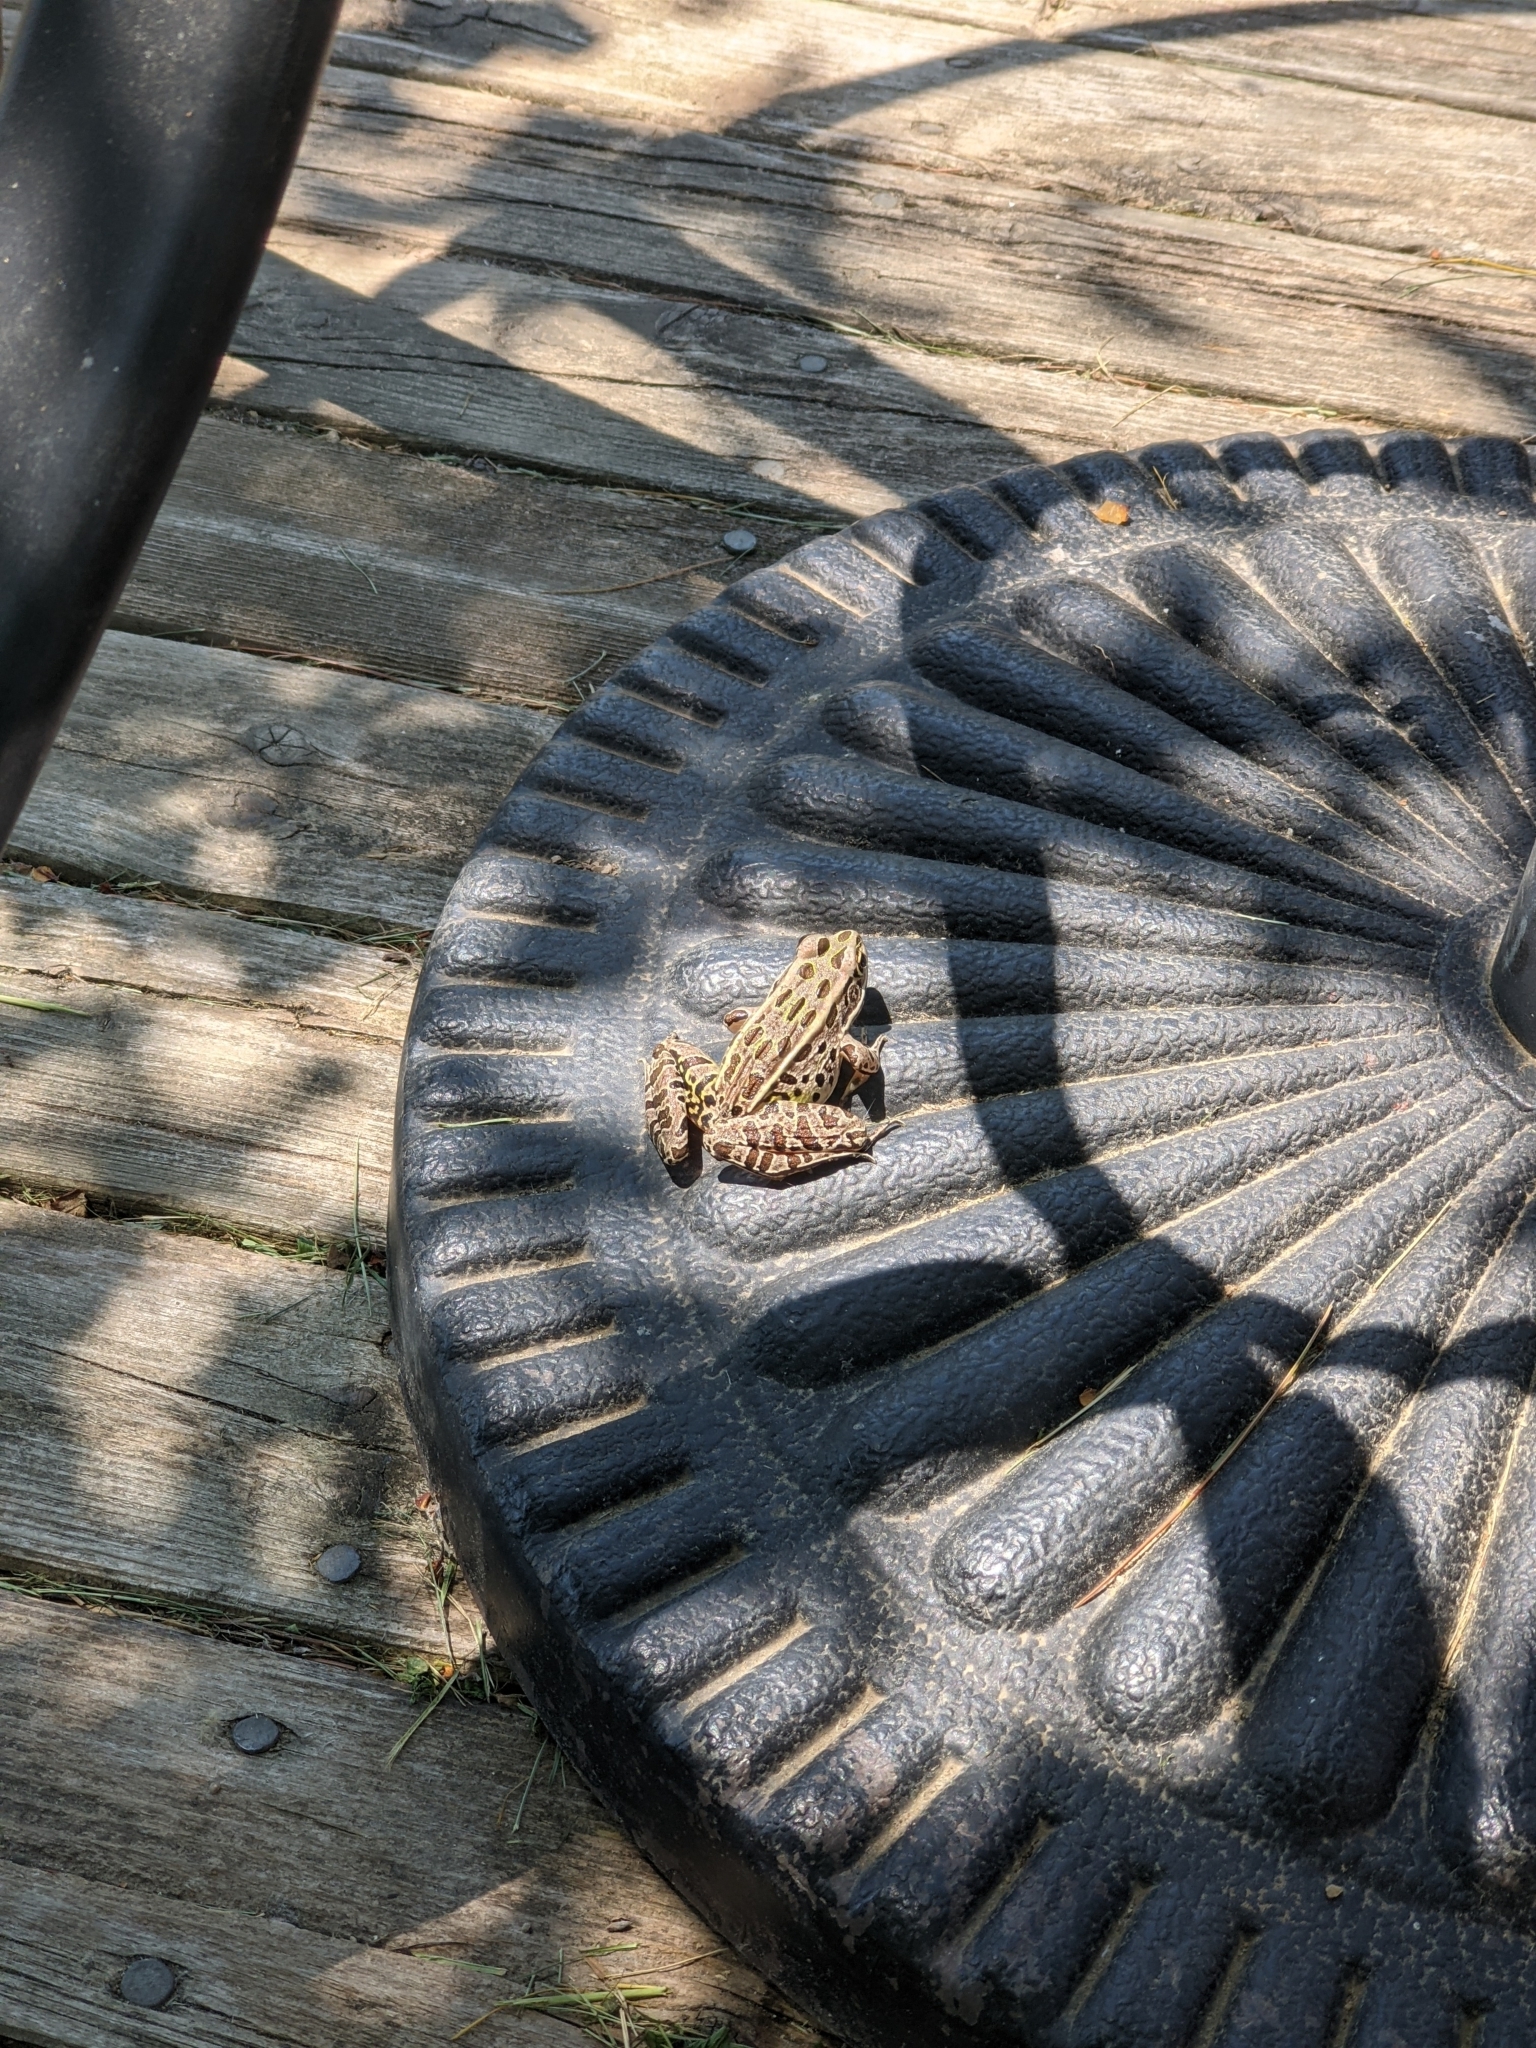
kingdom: Animalia
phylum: Chordata
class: Amphibia
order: Anura
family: Ranidae
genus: Lithobates
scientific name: Lithobates pipiens
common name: Northern leopard frog
